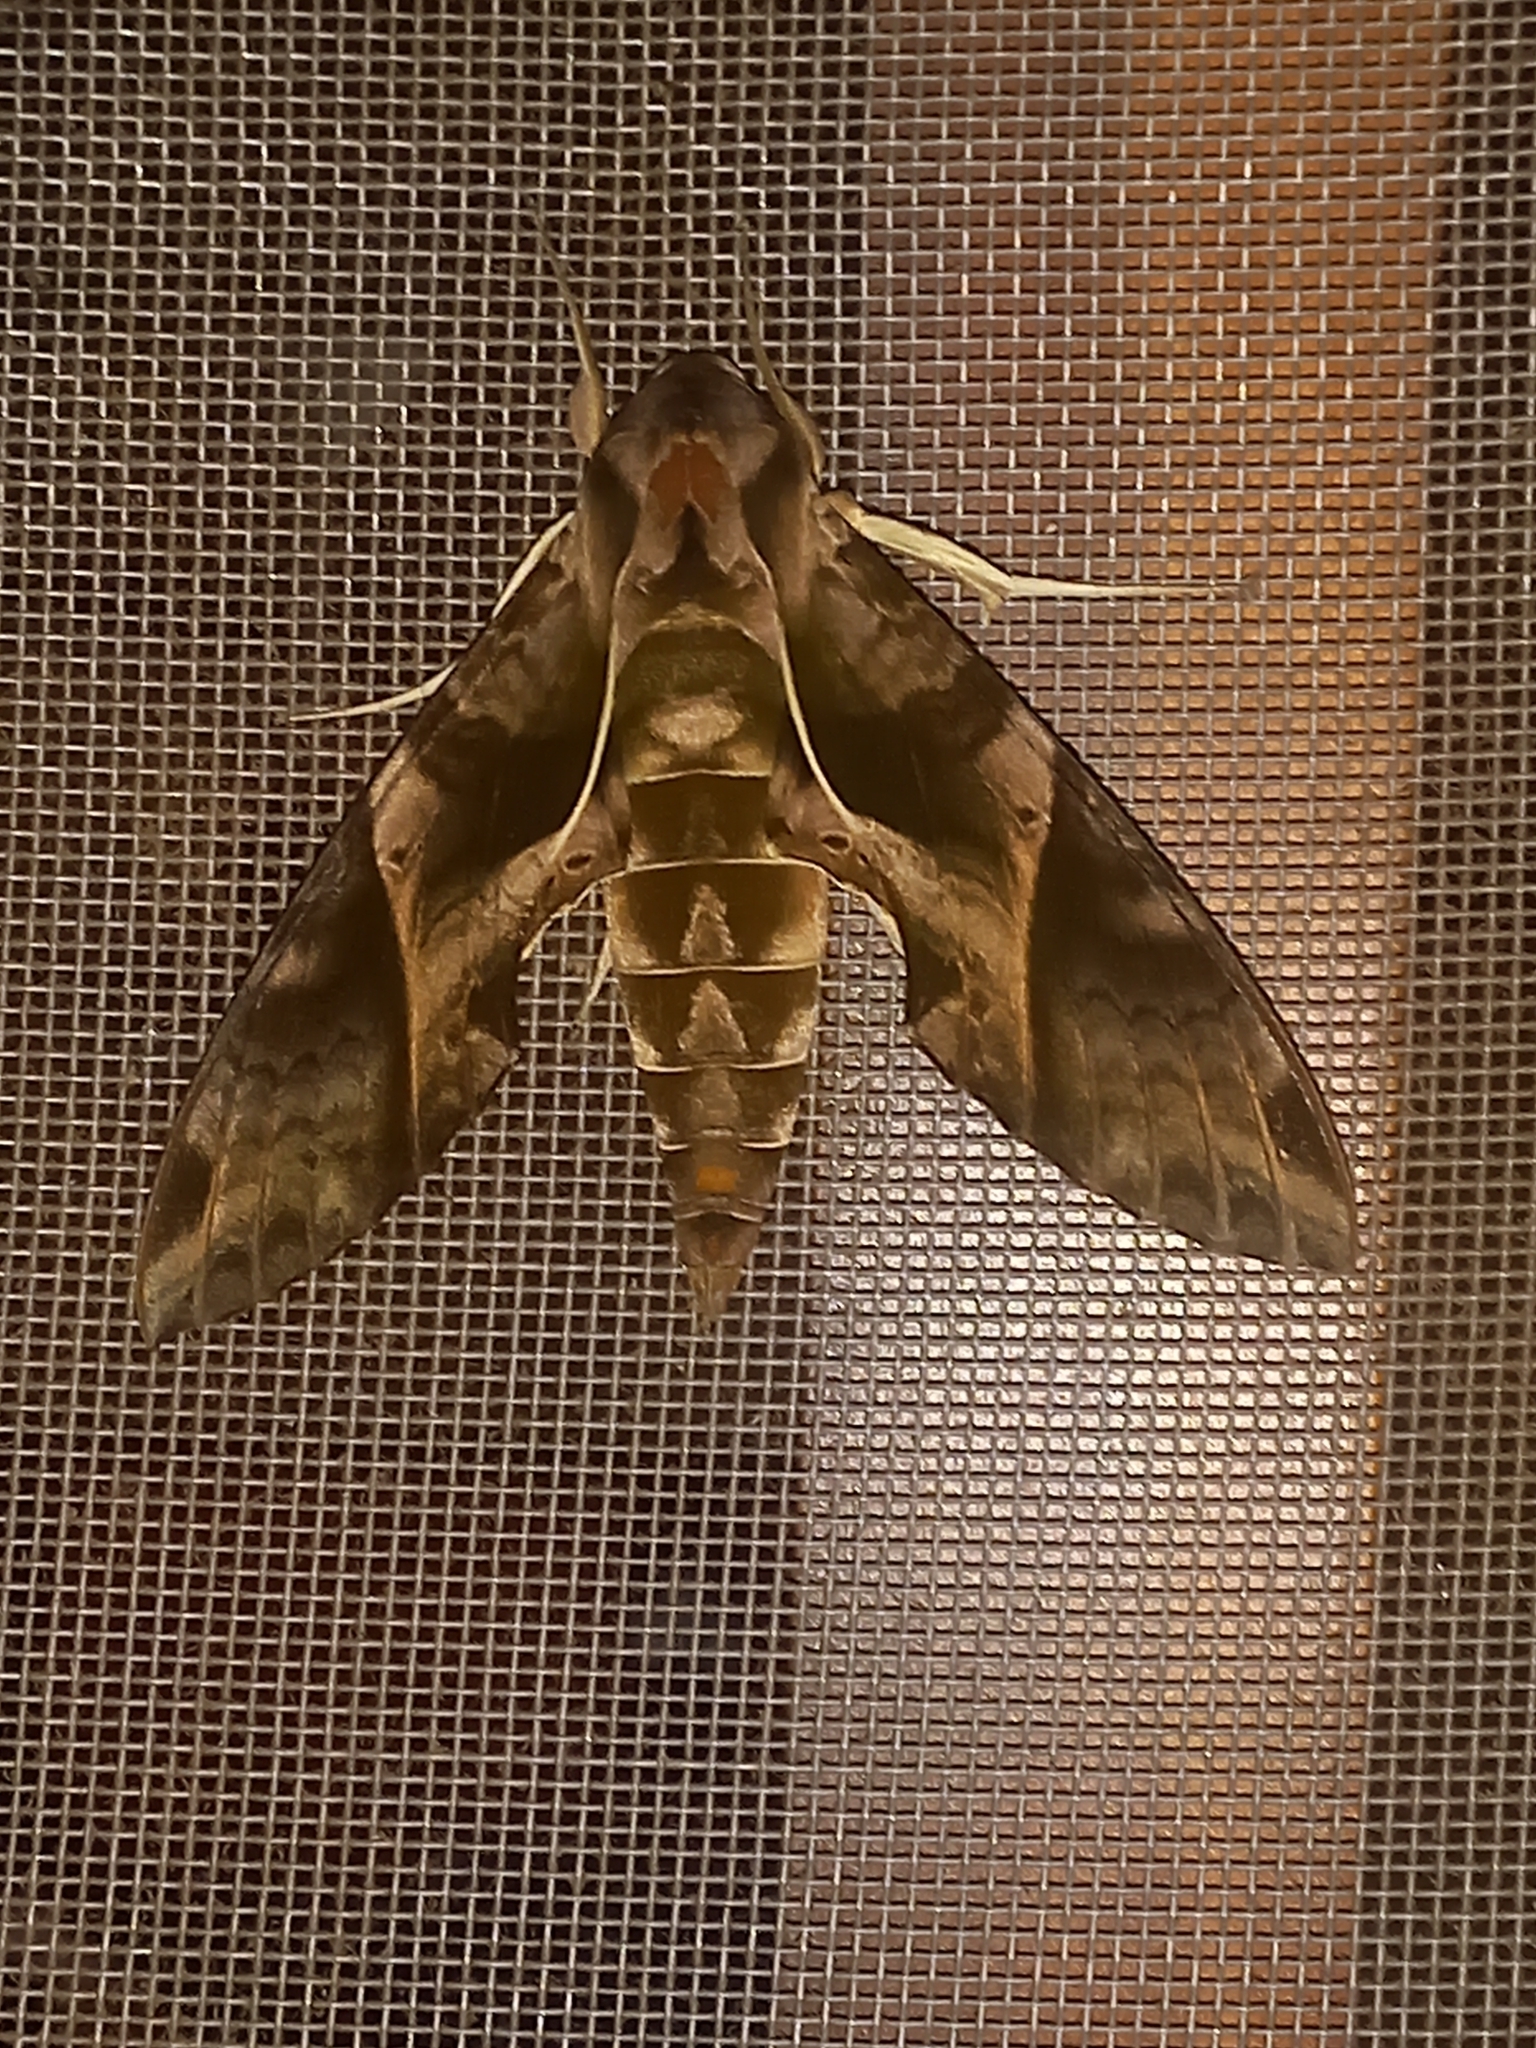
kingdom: Animalia
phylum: Arthropoda
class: Insecta
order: Lepidoptera
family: Sphingidae
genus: Eumorpha
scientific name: Eumorpha anchemolus
